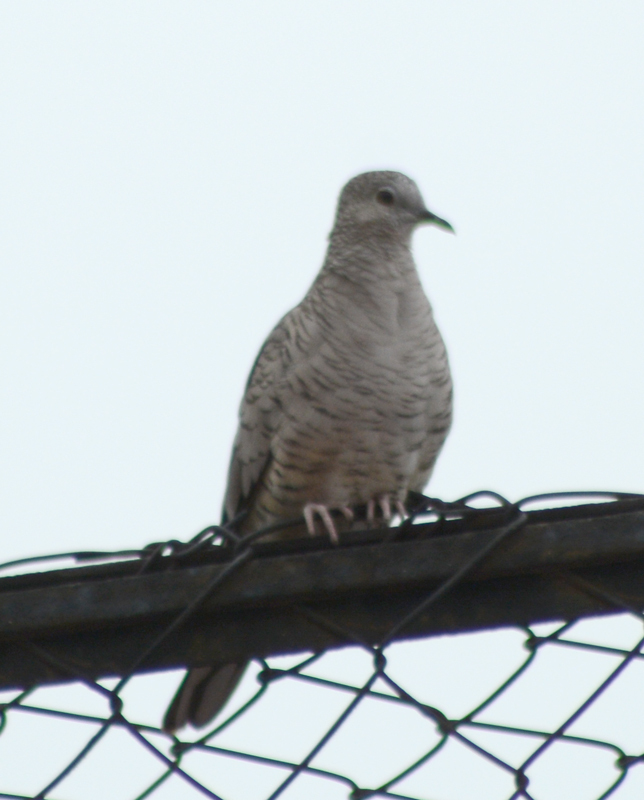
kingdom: Animalia
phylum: Chordata
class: Aves
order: Columbiformes
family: Columbidae
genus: Columbina
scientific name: Columbina inca
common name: Inca dove
